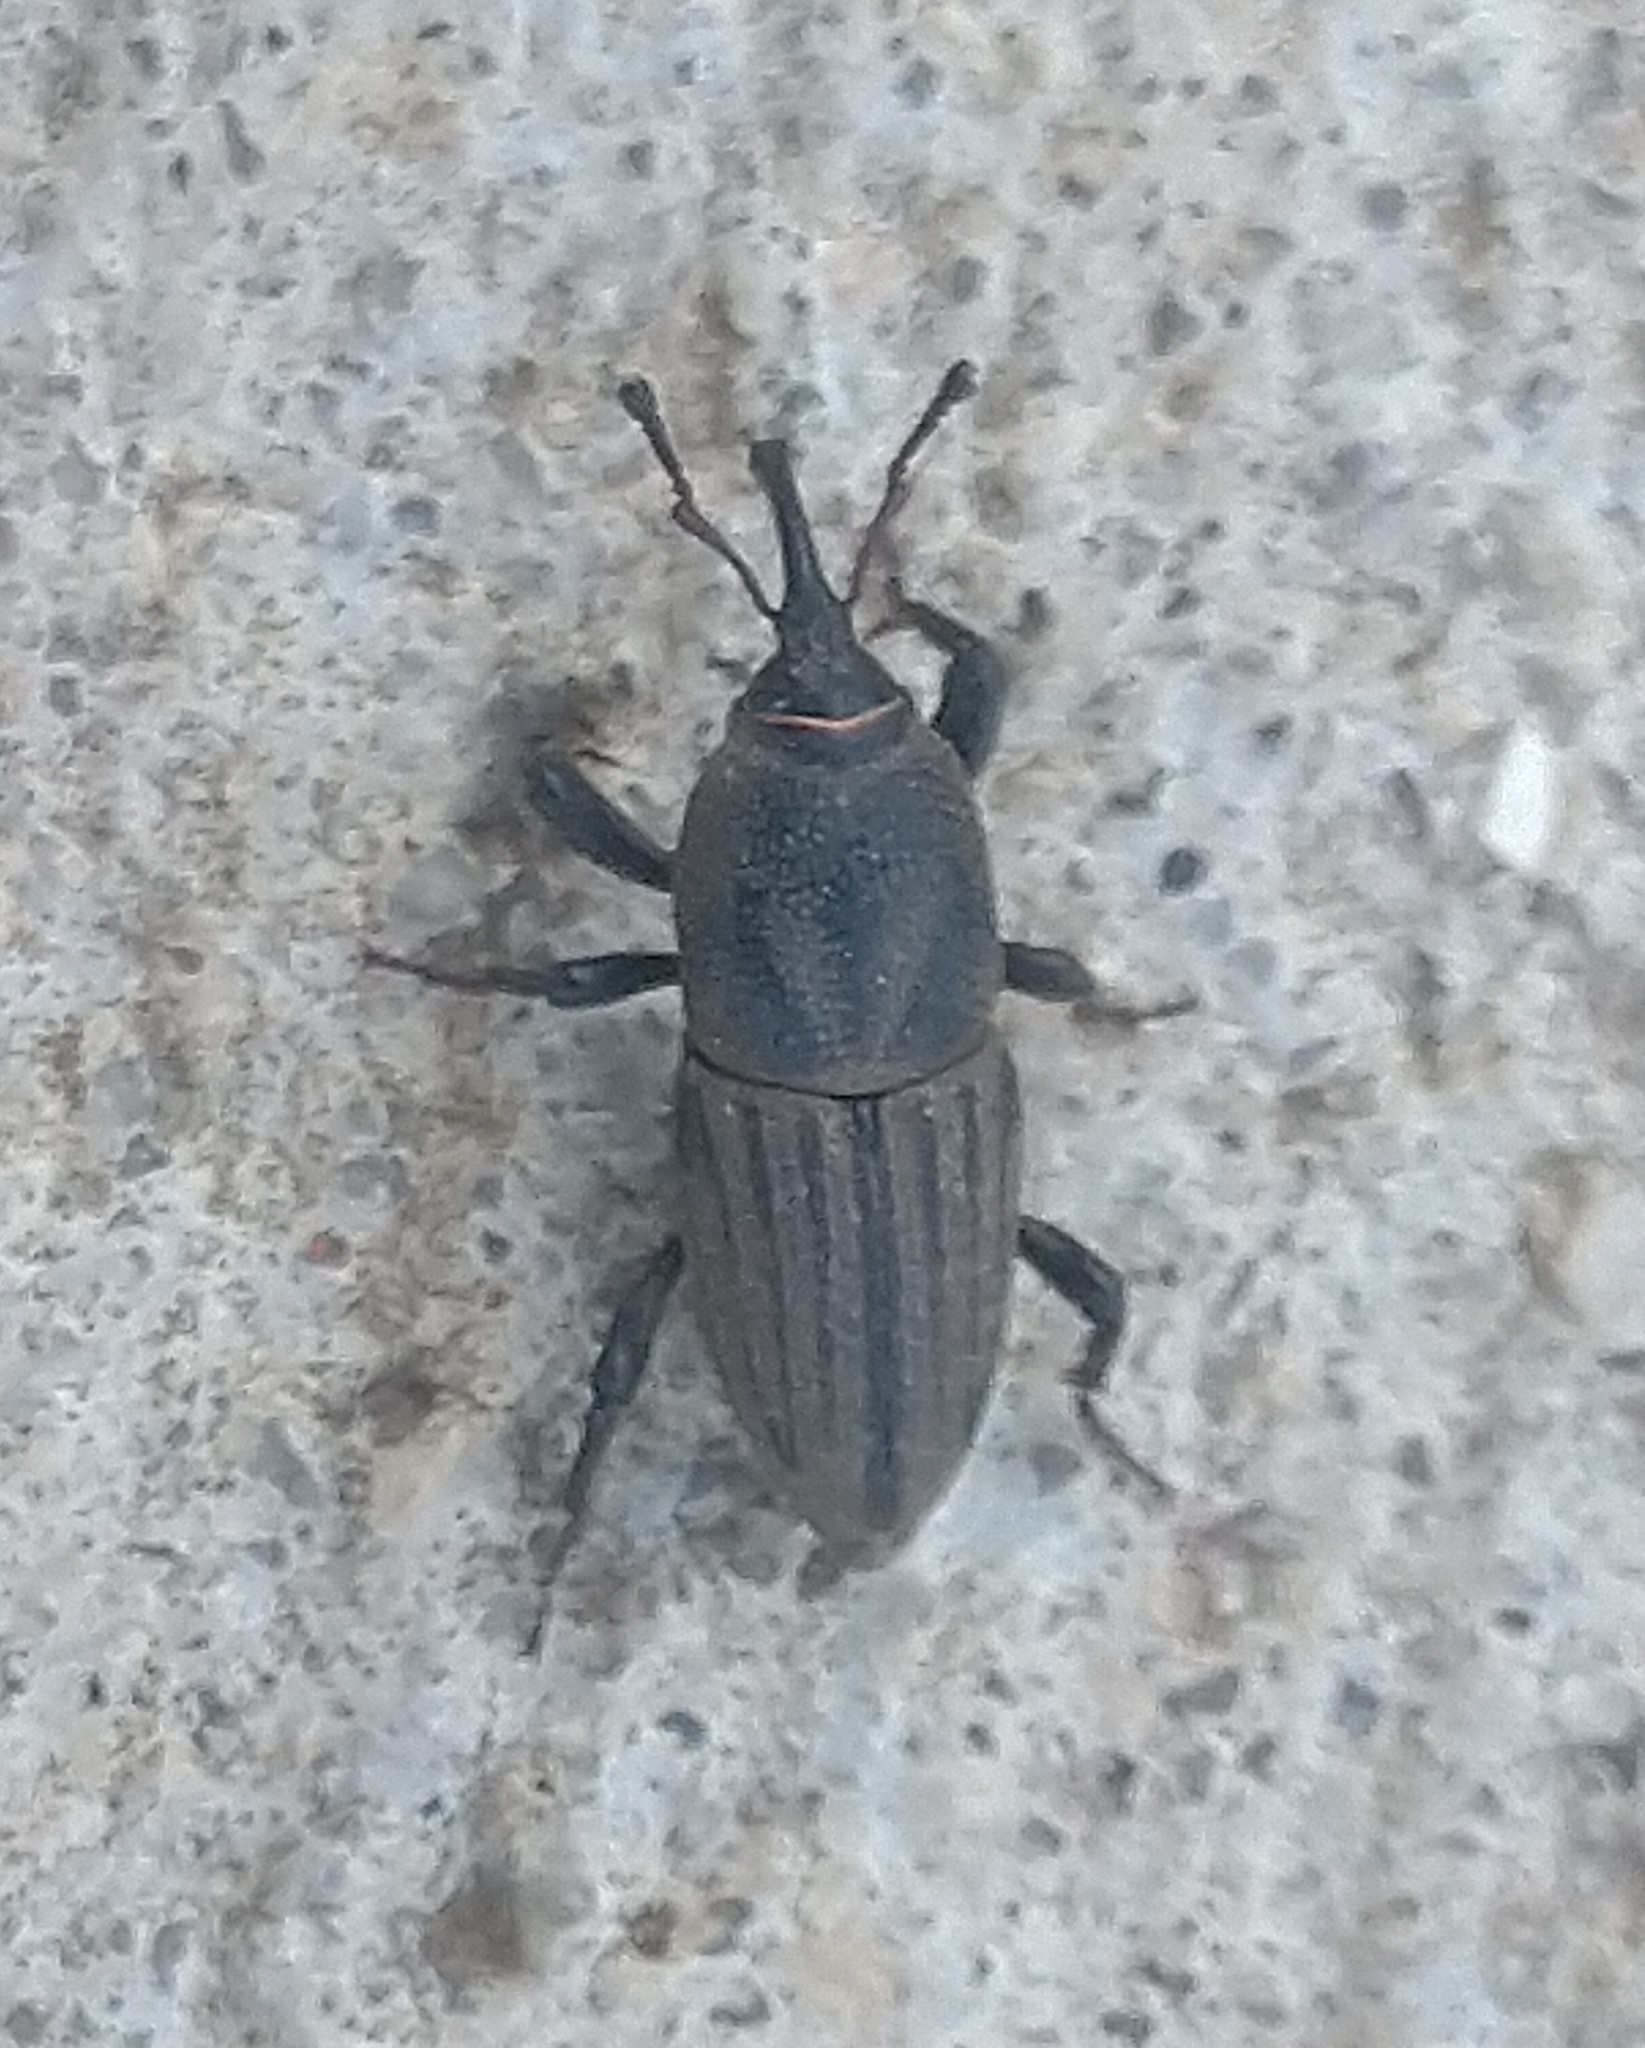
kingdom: Animalia
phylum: Arthropoda
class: Insecta
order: Coleoptera
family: Dryophthoridae
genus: Sphenophorus
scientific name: Sphenophorus interstitialis
